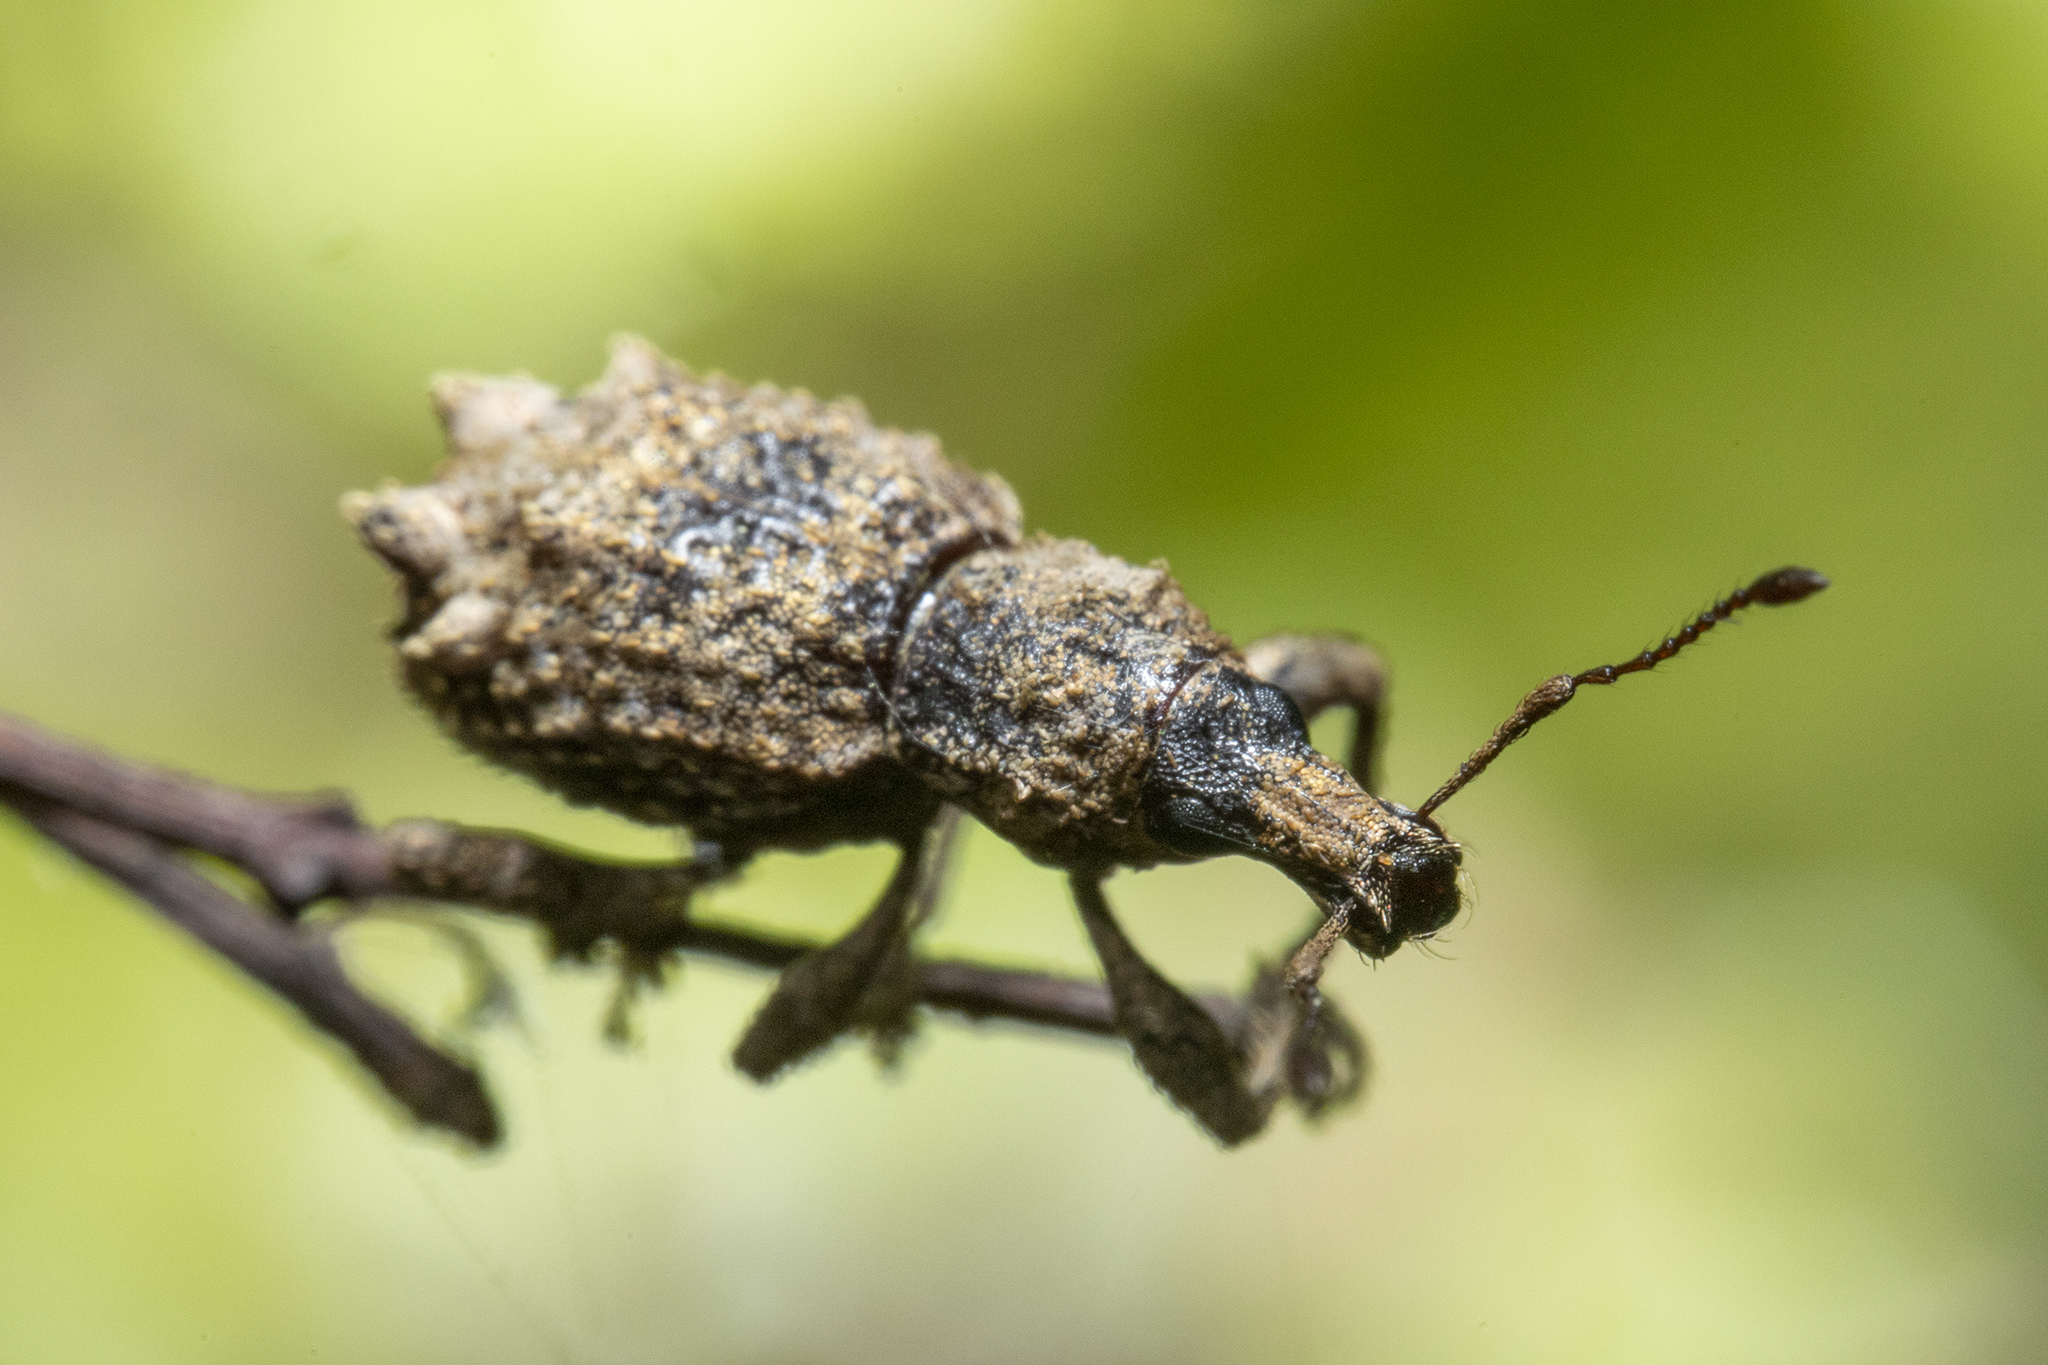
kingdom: Animalia
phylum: Arthropoda
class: Insecta
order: Coleoptera
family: Curculionidae
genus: Catoptes
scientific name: Catoptes coronatus
